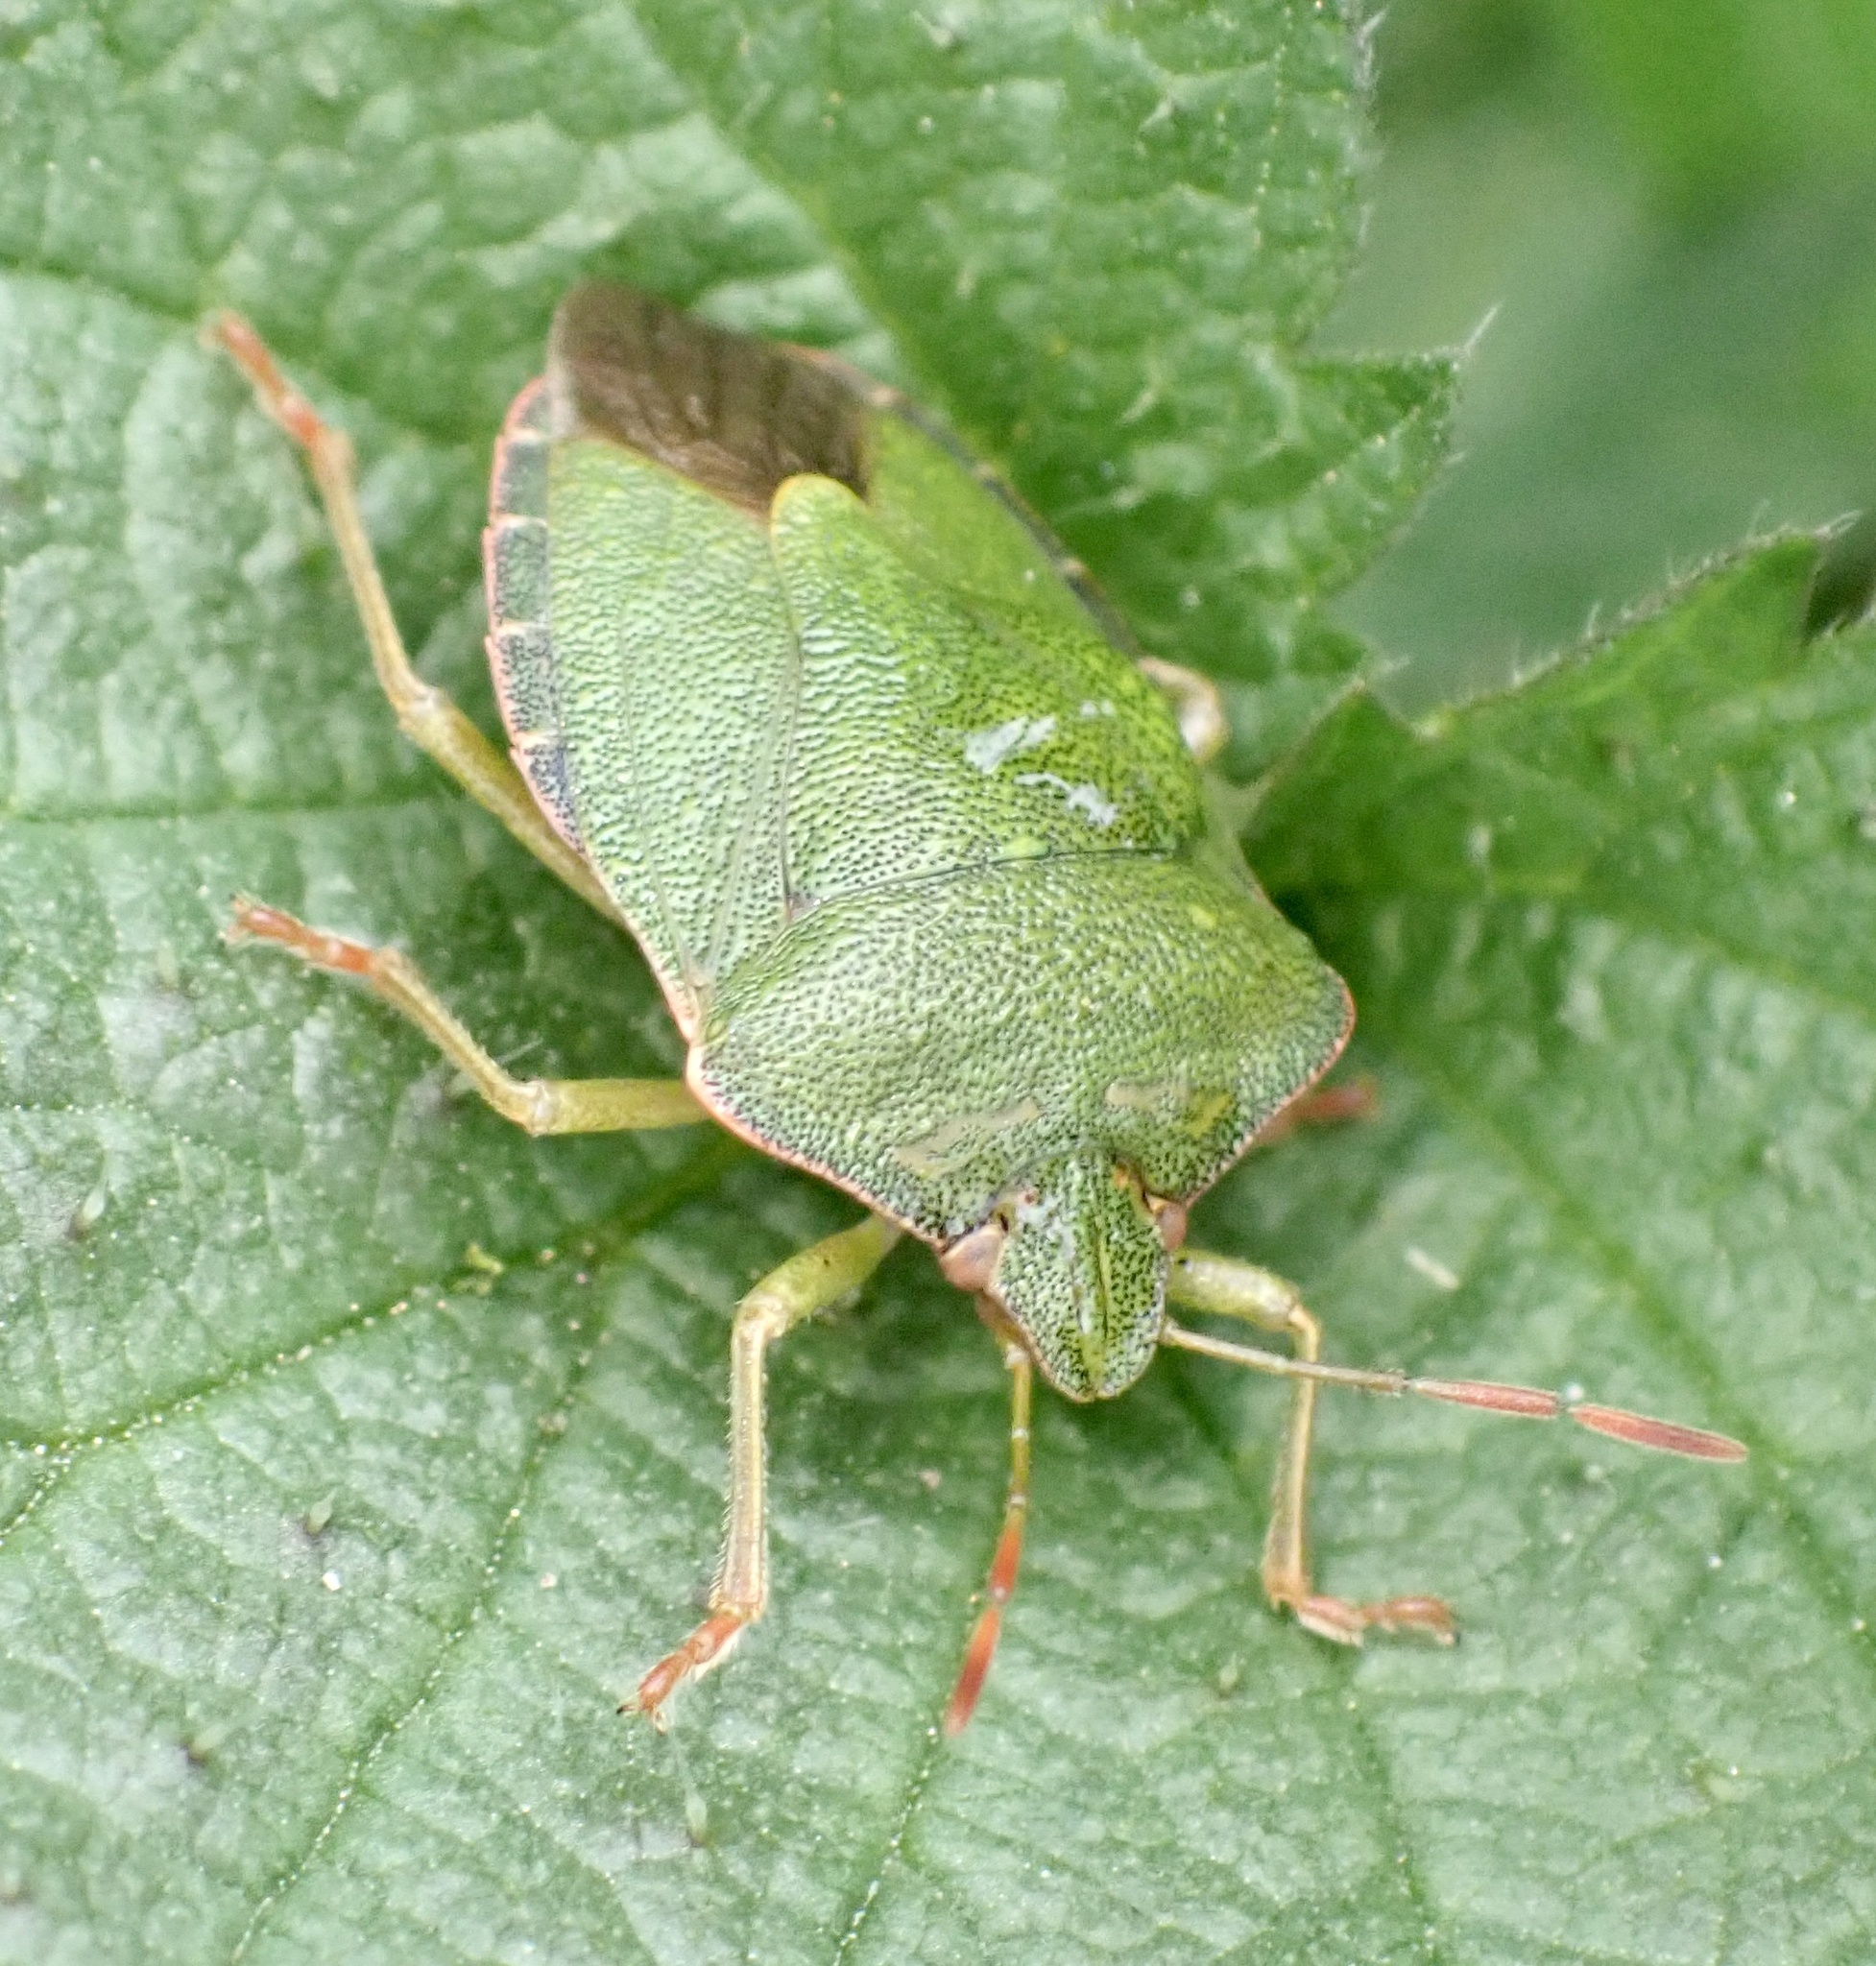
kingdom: Animalia
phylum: Arthropoda
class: Insecta
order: Hemiptera
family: Pentatomidae
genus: Palomena
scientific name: Palomena prasina
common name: Green shieldbug
